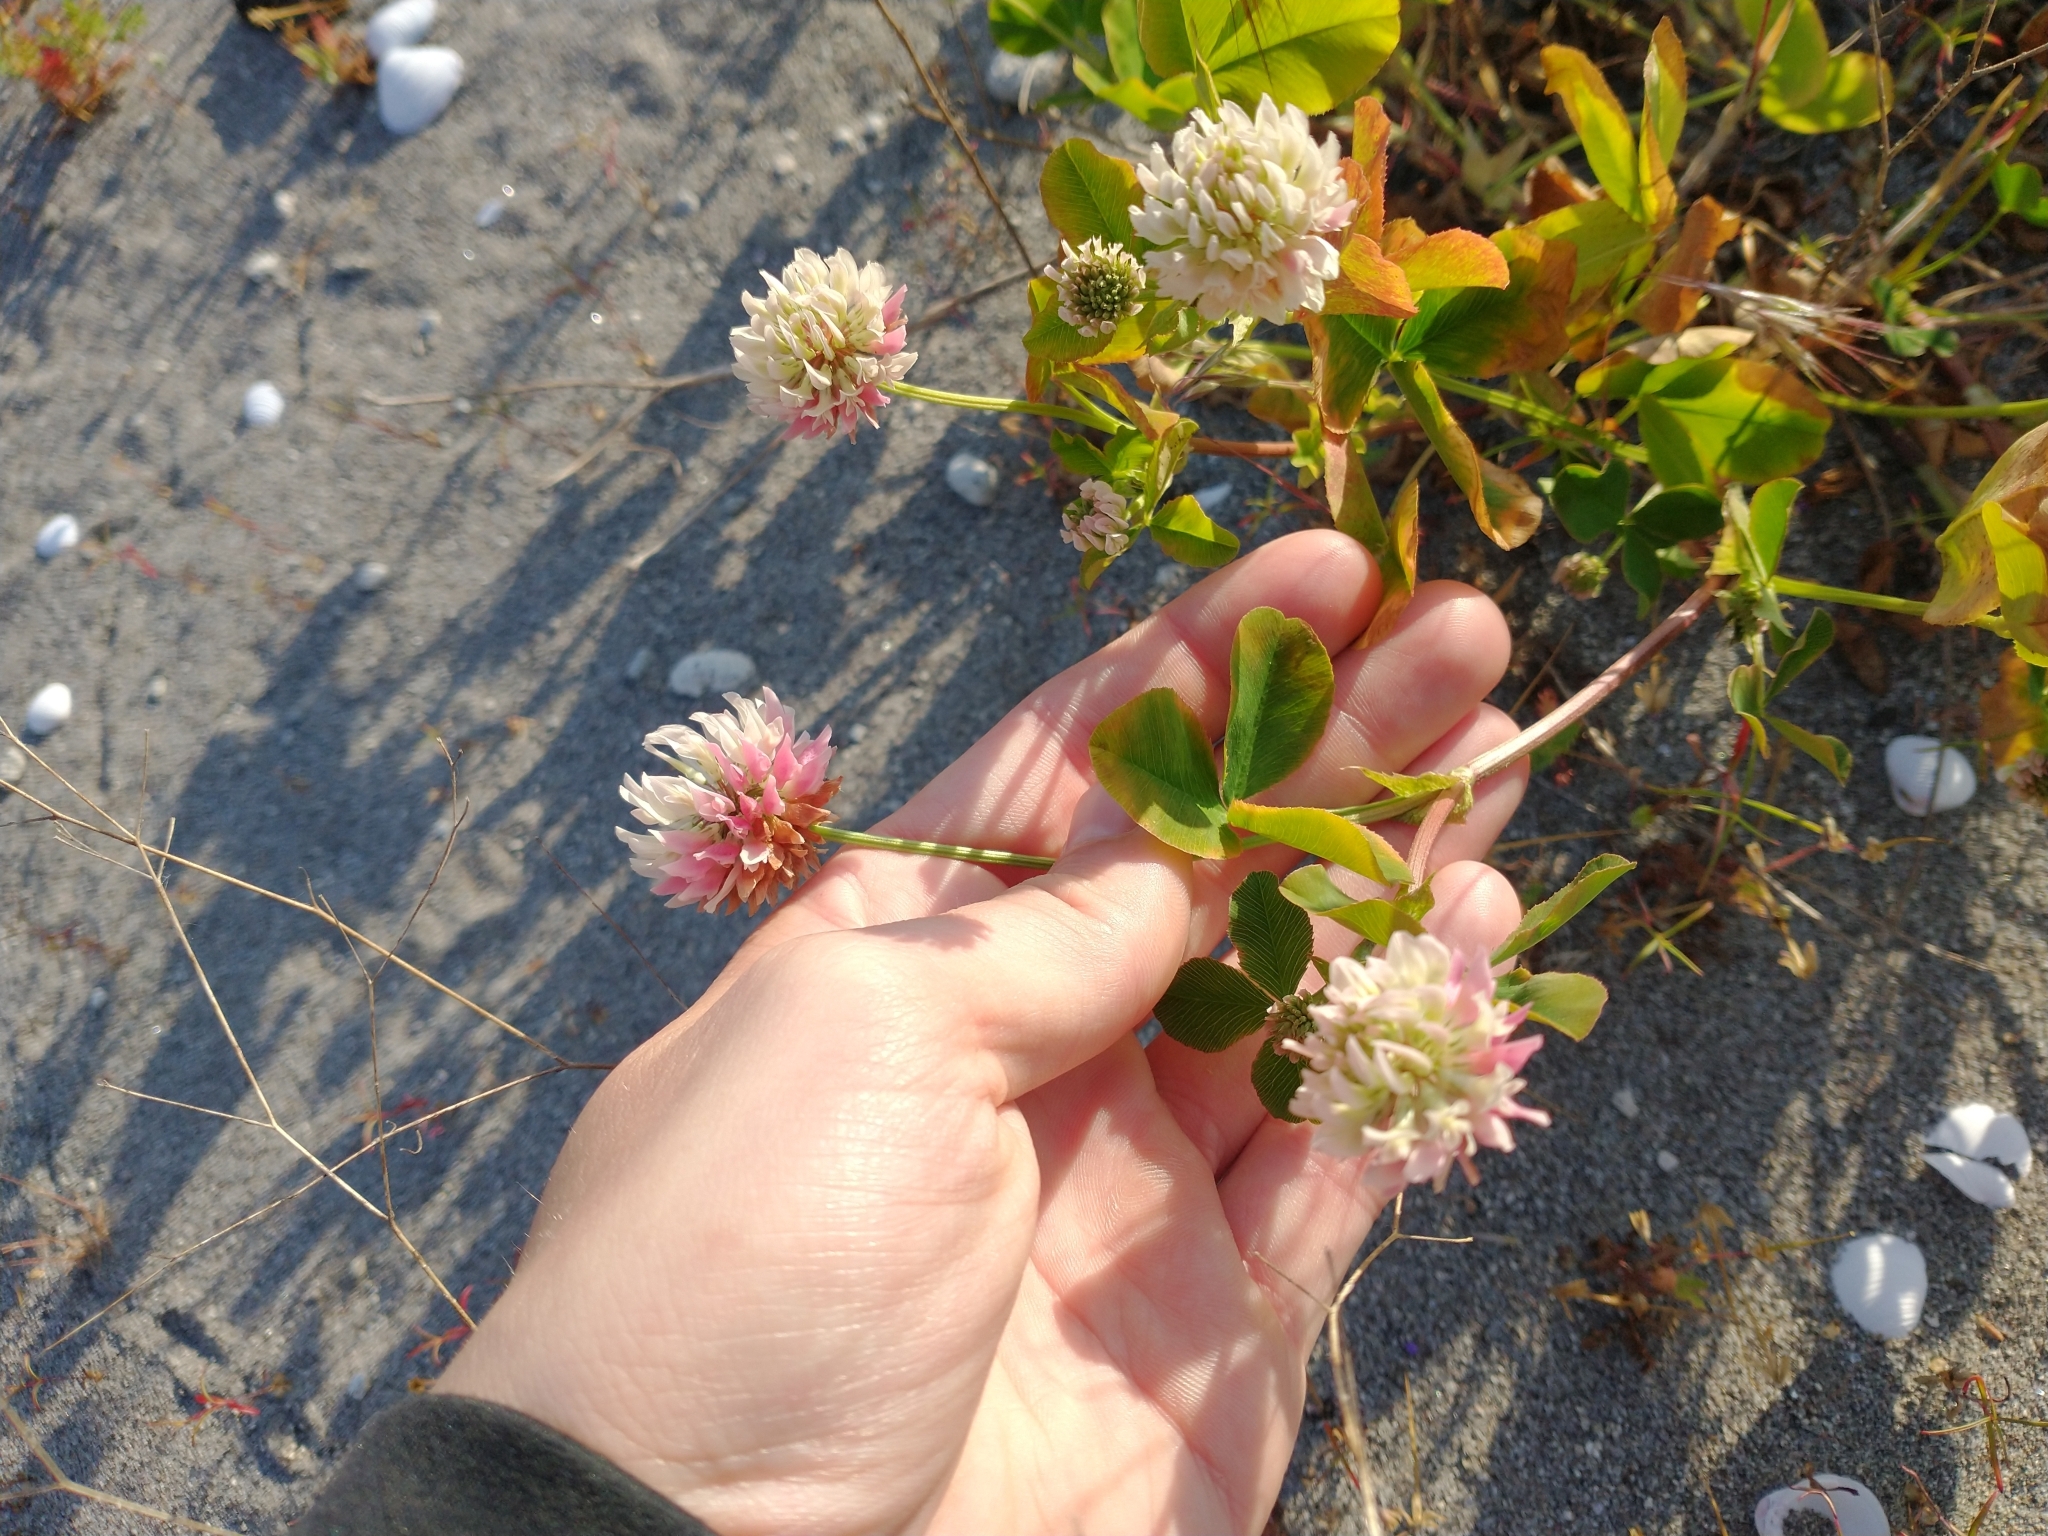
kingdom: Plantae
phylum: Tracheophyta
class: Magnoliopsida
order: Fabales
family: Fabaceae
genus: Trifolium
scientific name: Trifolium hybridum
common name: Alsike clover
